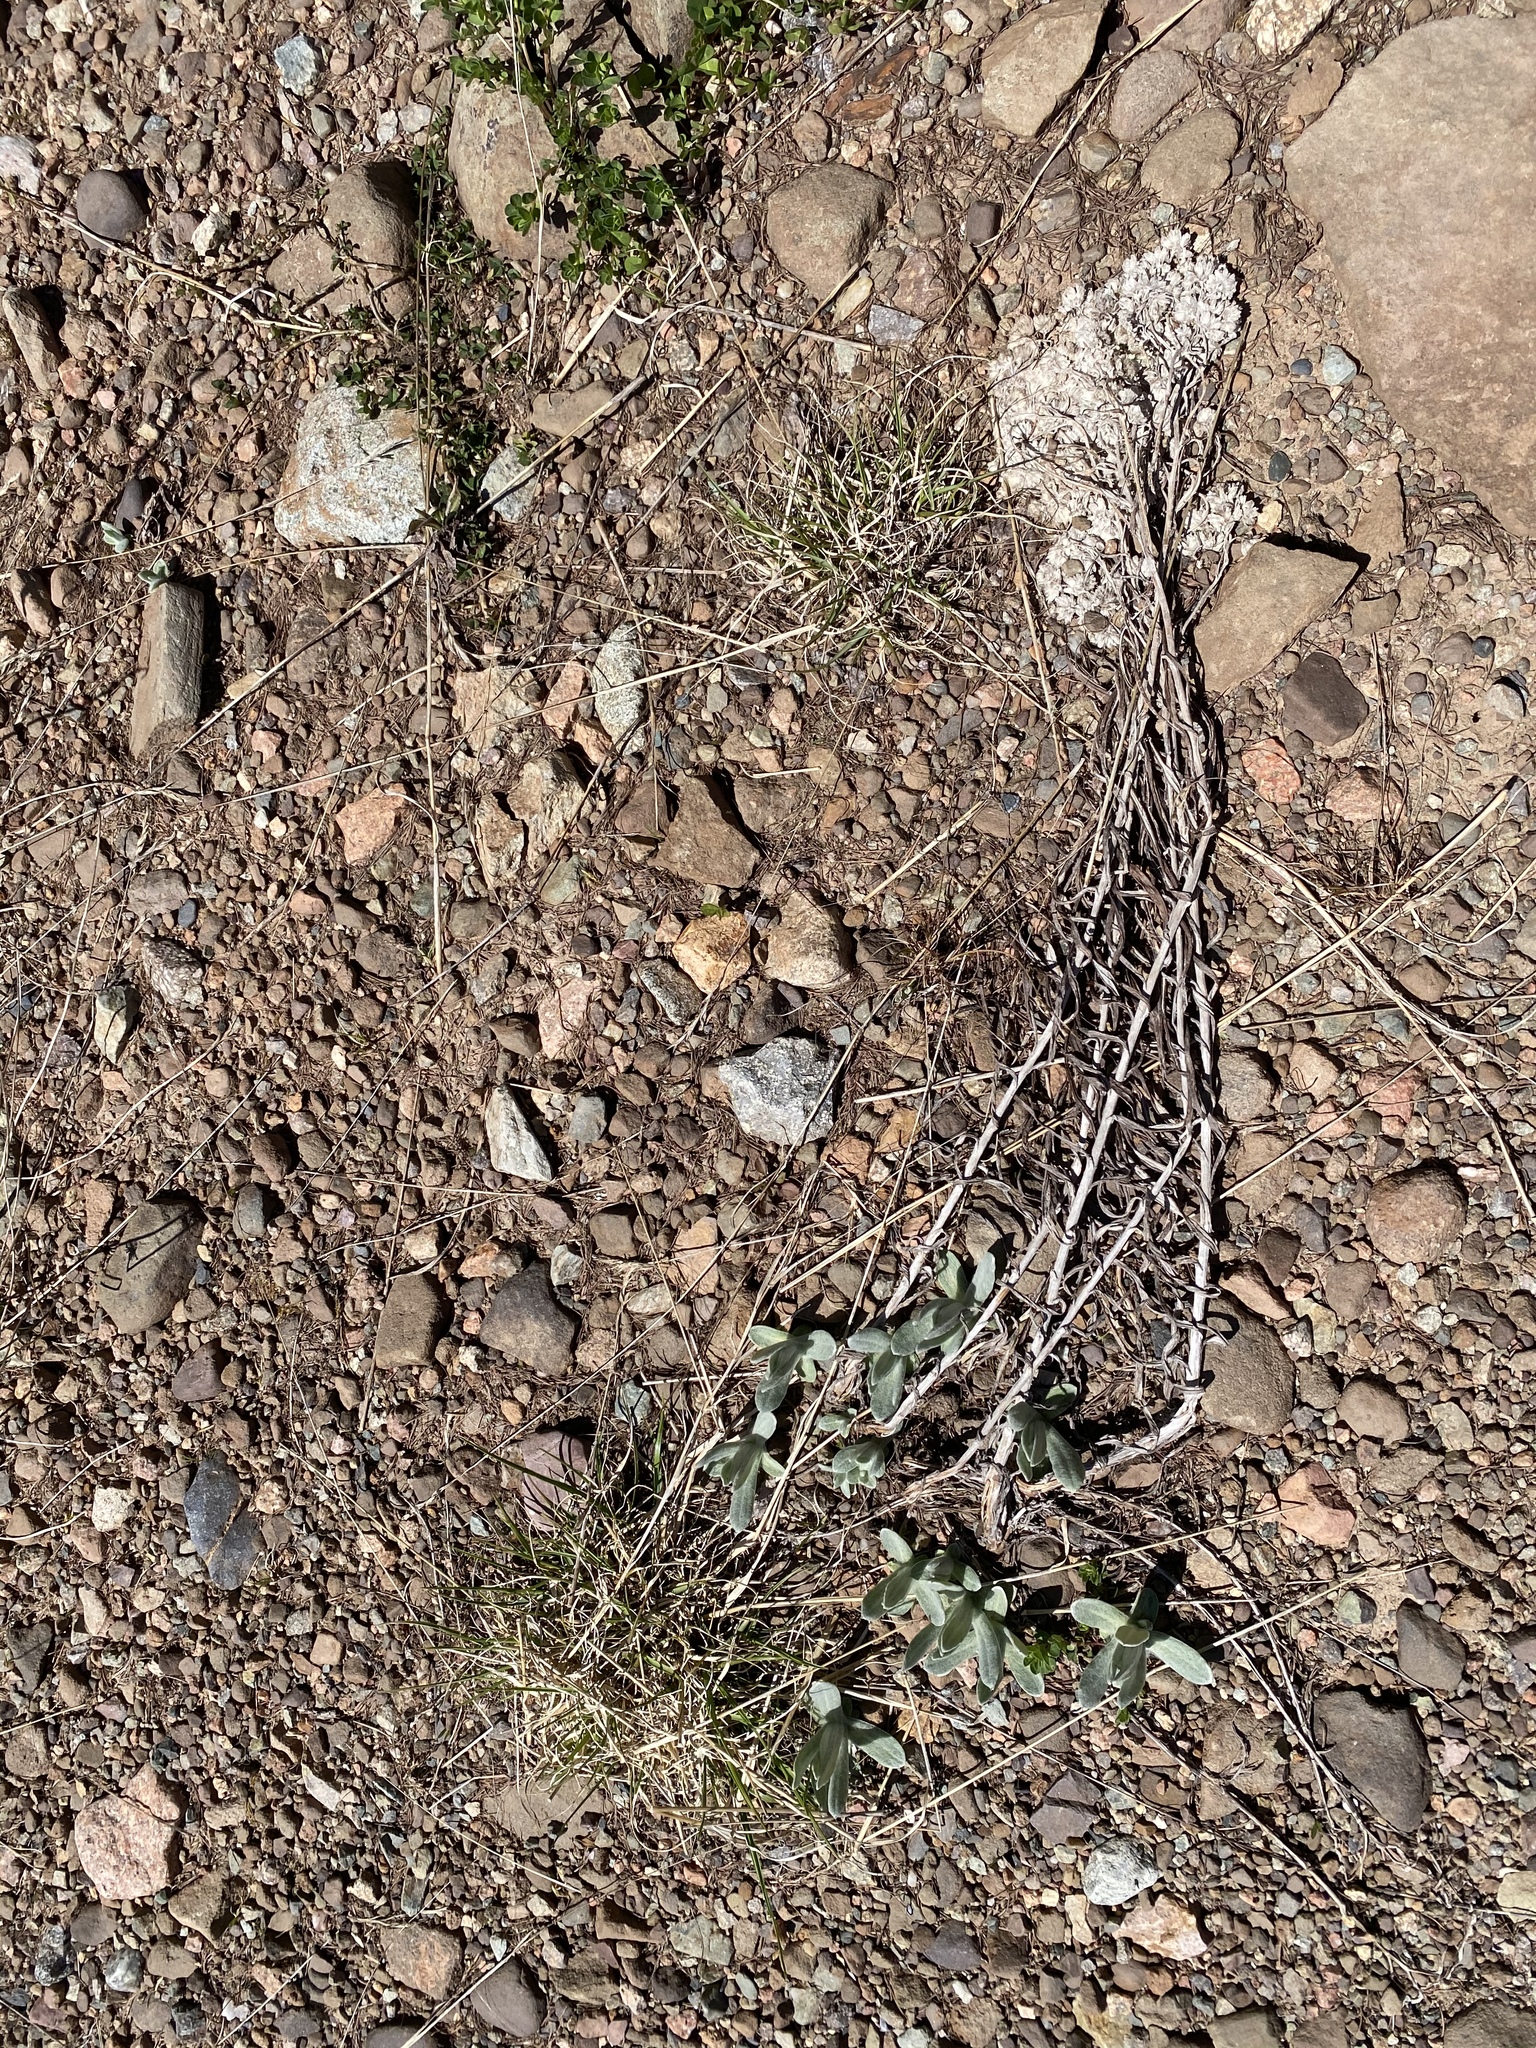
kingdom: Plantae
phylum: Tracheophyta
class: Magnoliopsida
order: Asterales
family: Asteraceae
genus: Anaphalis
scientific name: Anaphalis margaritacea
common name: Pearly everlasting
